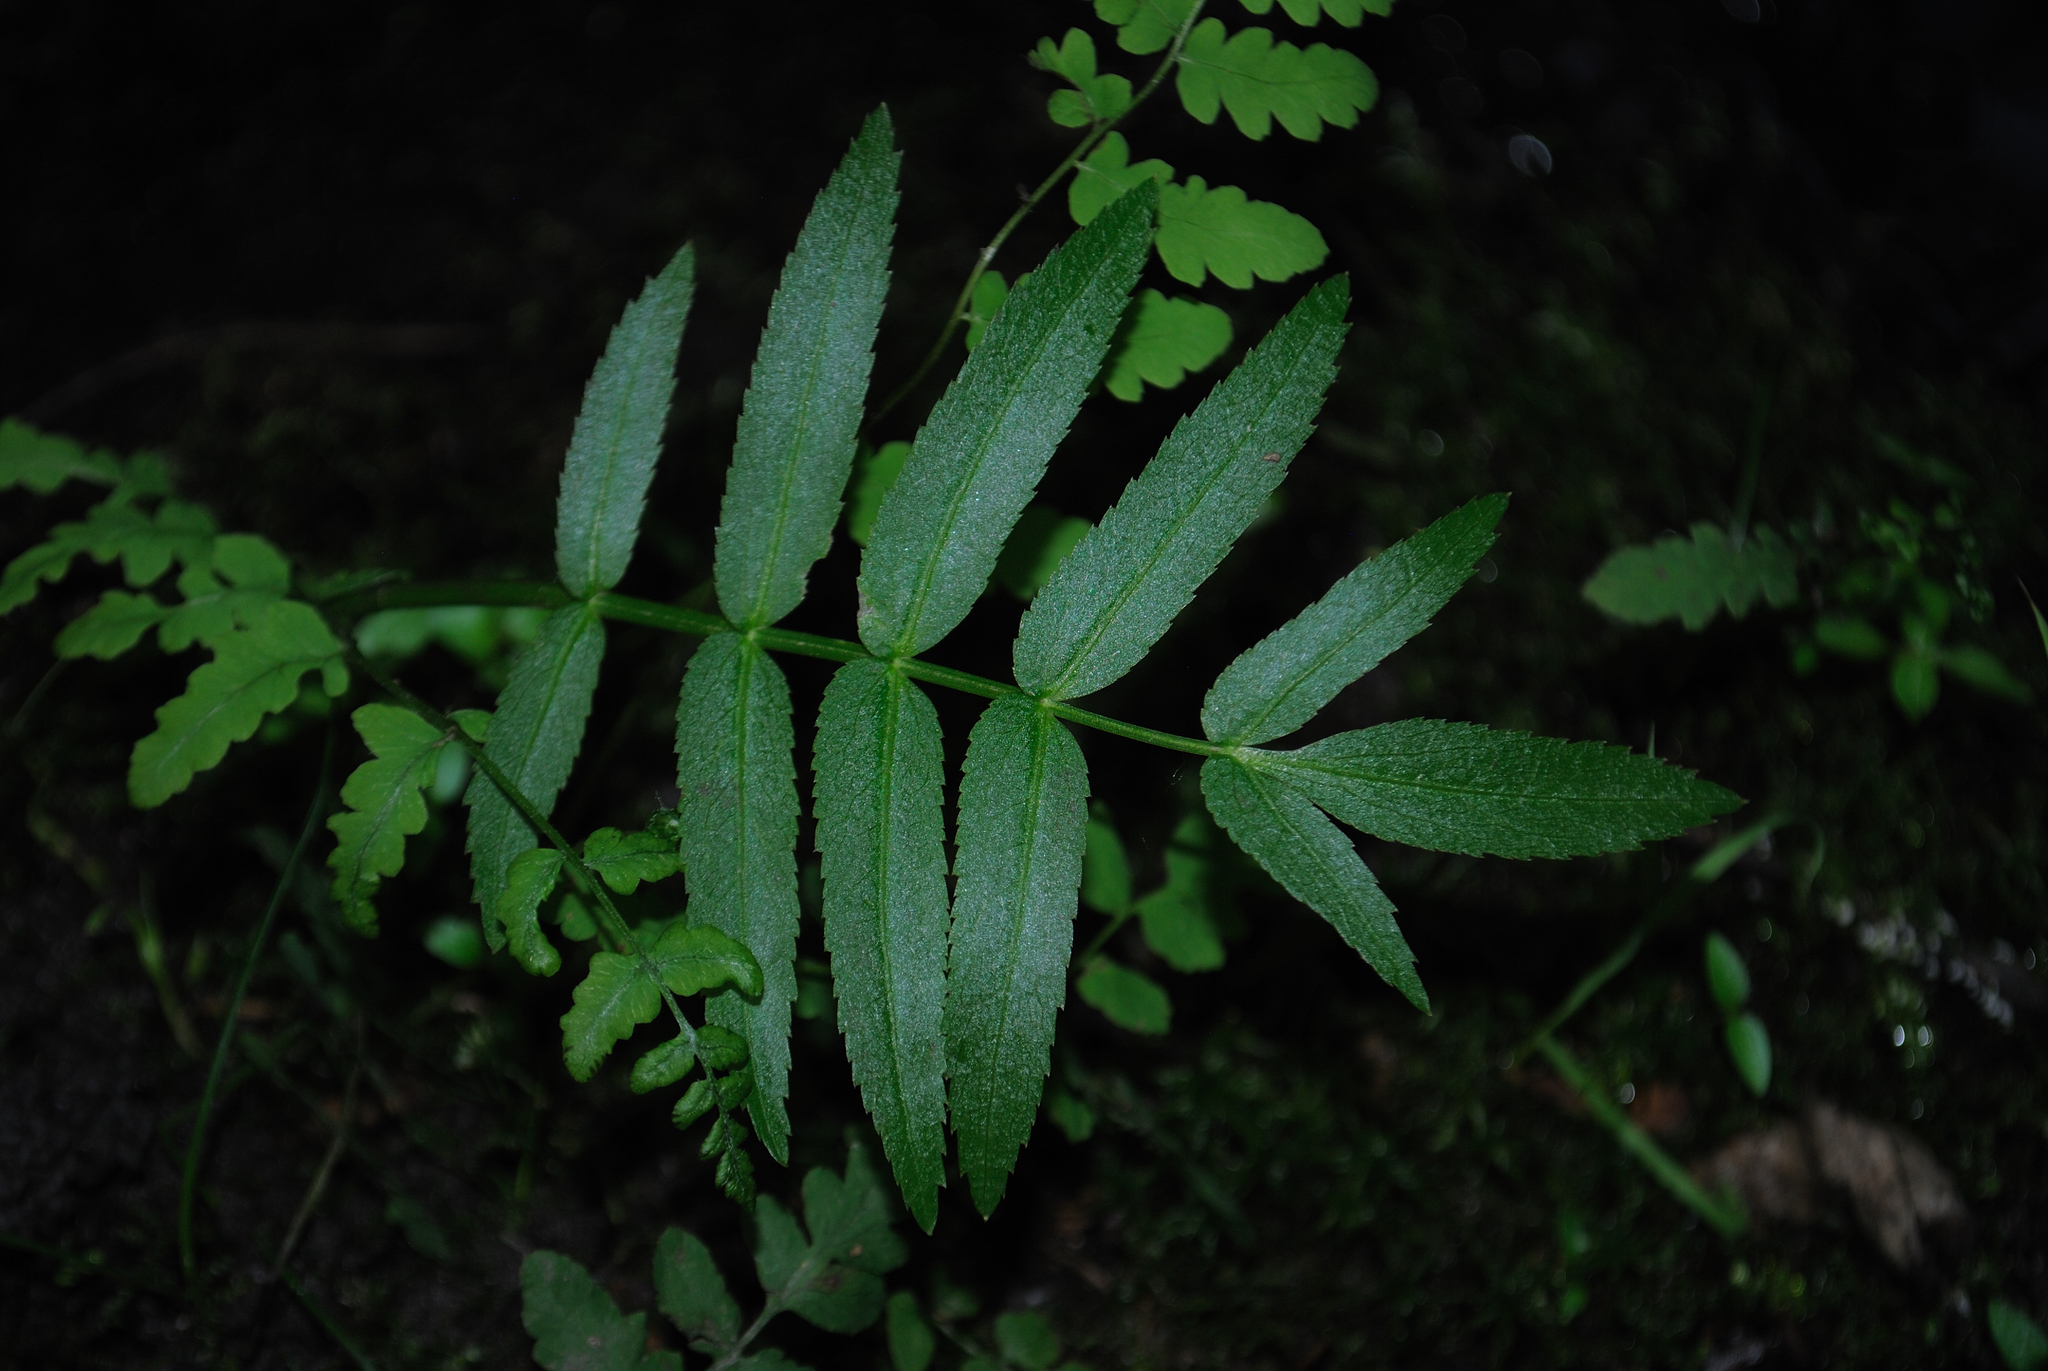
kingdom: Plantae
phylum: Tracheophyta
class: Magnoliopsida
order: Apiales
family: Apiaceae
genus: Sium
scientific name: Sium suave
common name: Hemlock water-parsnip
